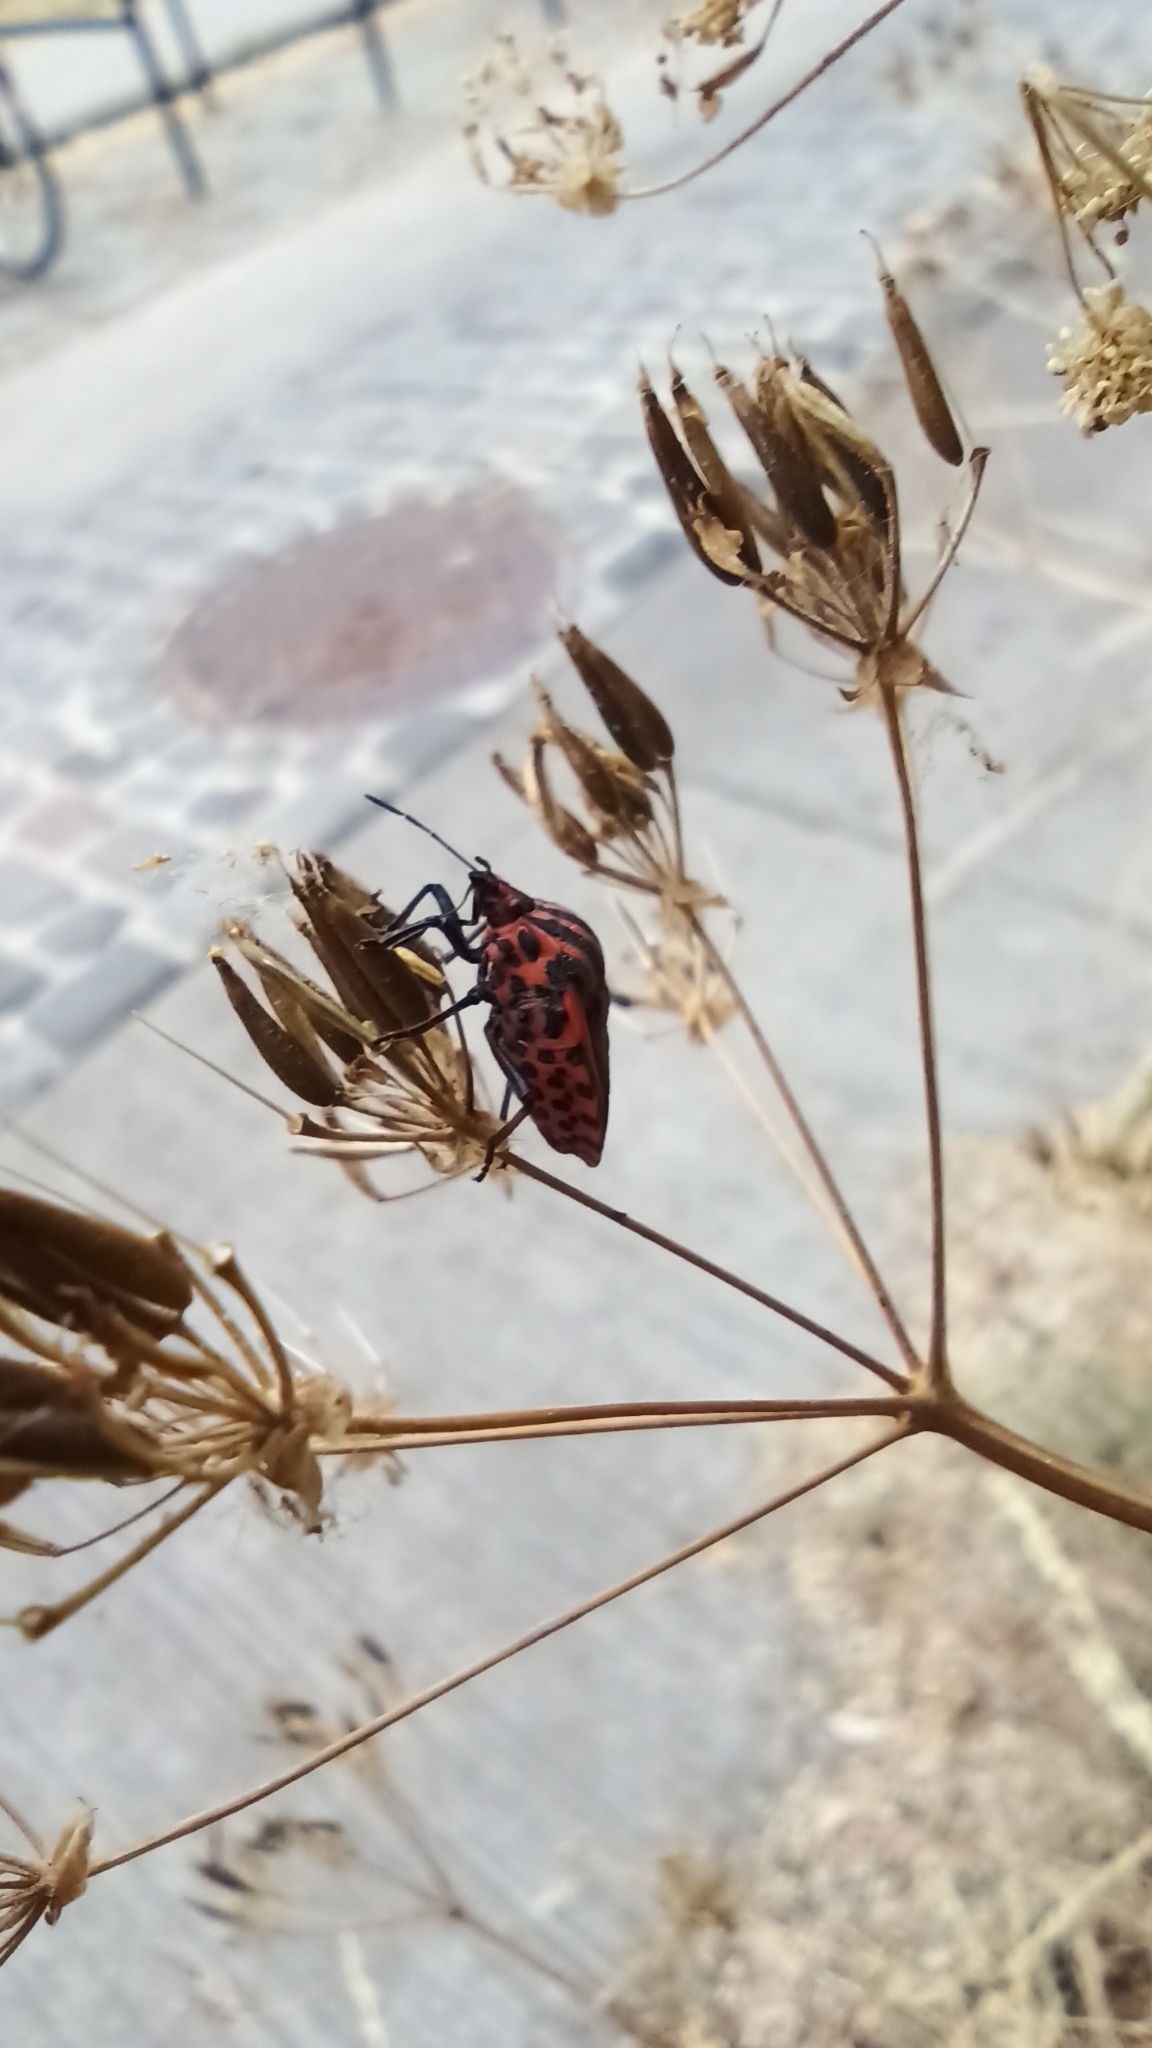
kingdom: Animalia
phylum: Arthropoda
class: Insecta
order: Hemiptera
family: Pentatomidae
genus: Graphosoma
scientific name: Graphosoma italicum
